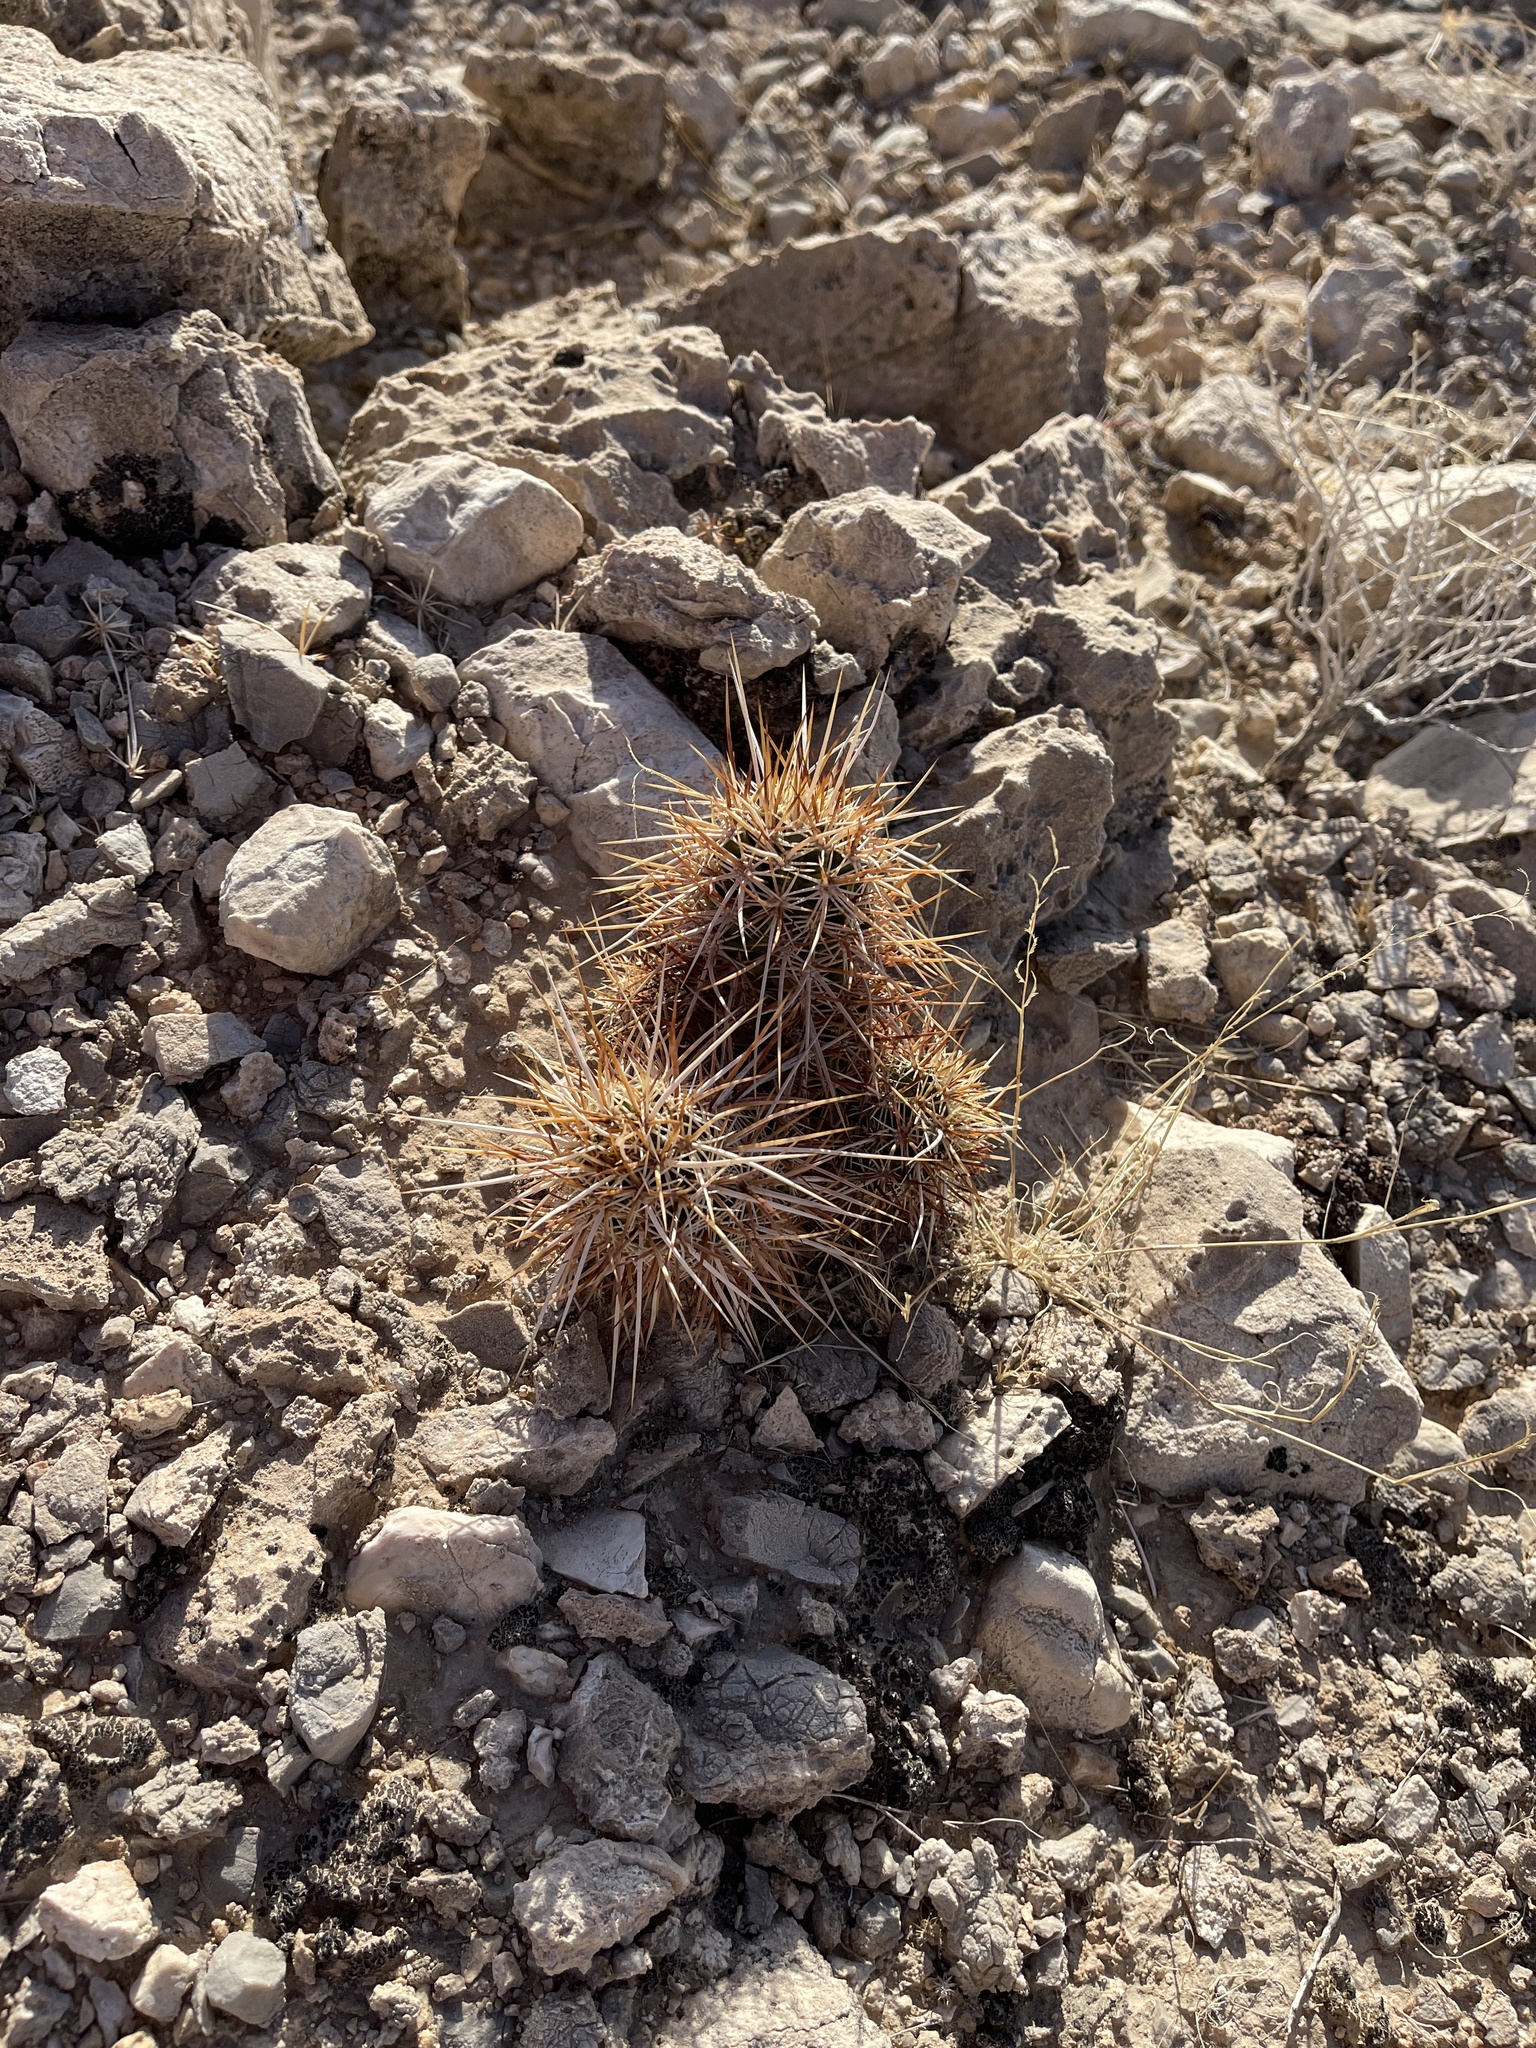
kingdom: Plantae
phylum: Tracheophyta
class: Magnoliopsida
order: Caryophyllales
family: Cactaceae
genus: Echinocereus
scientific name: Echinocereus engelmannii
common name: Engelmann's hedgehog cactus
